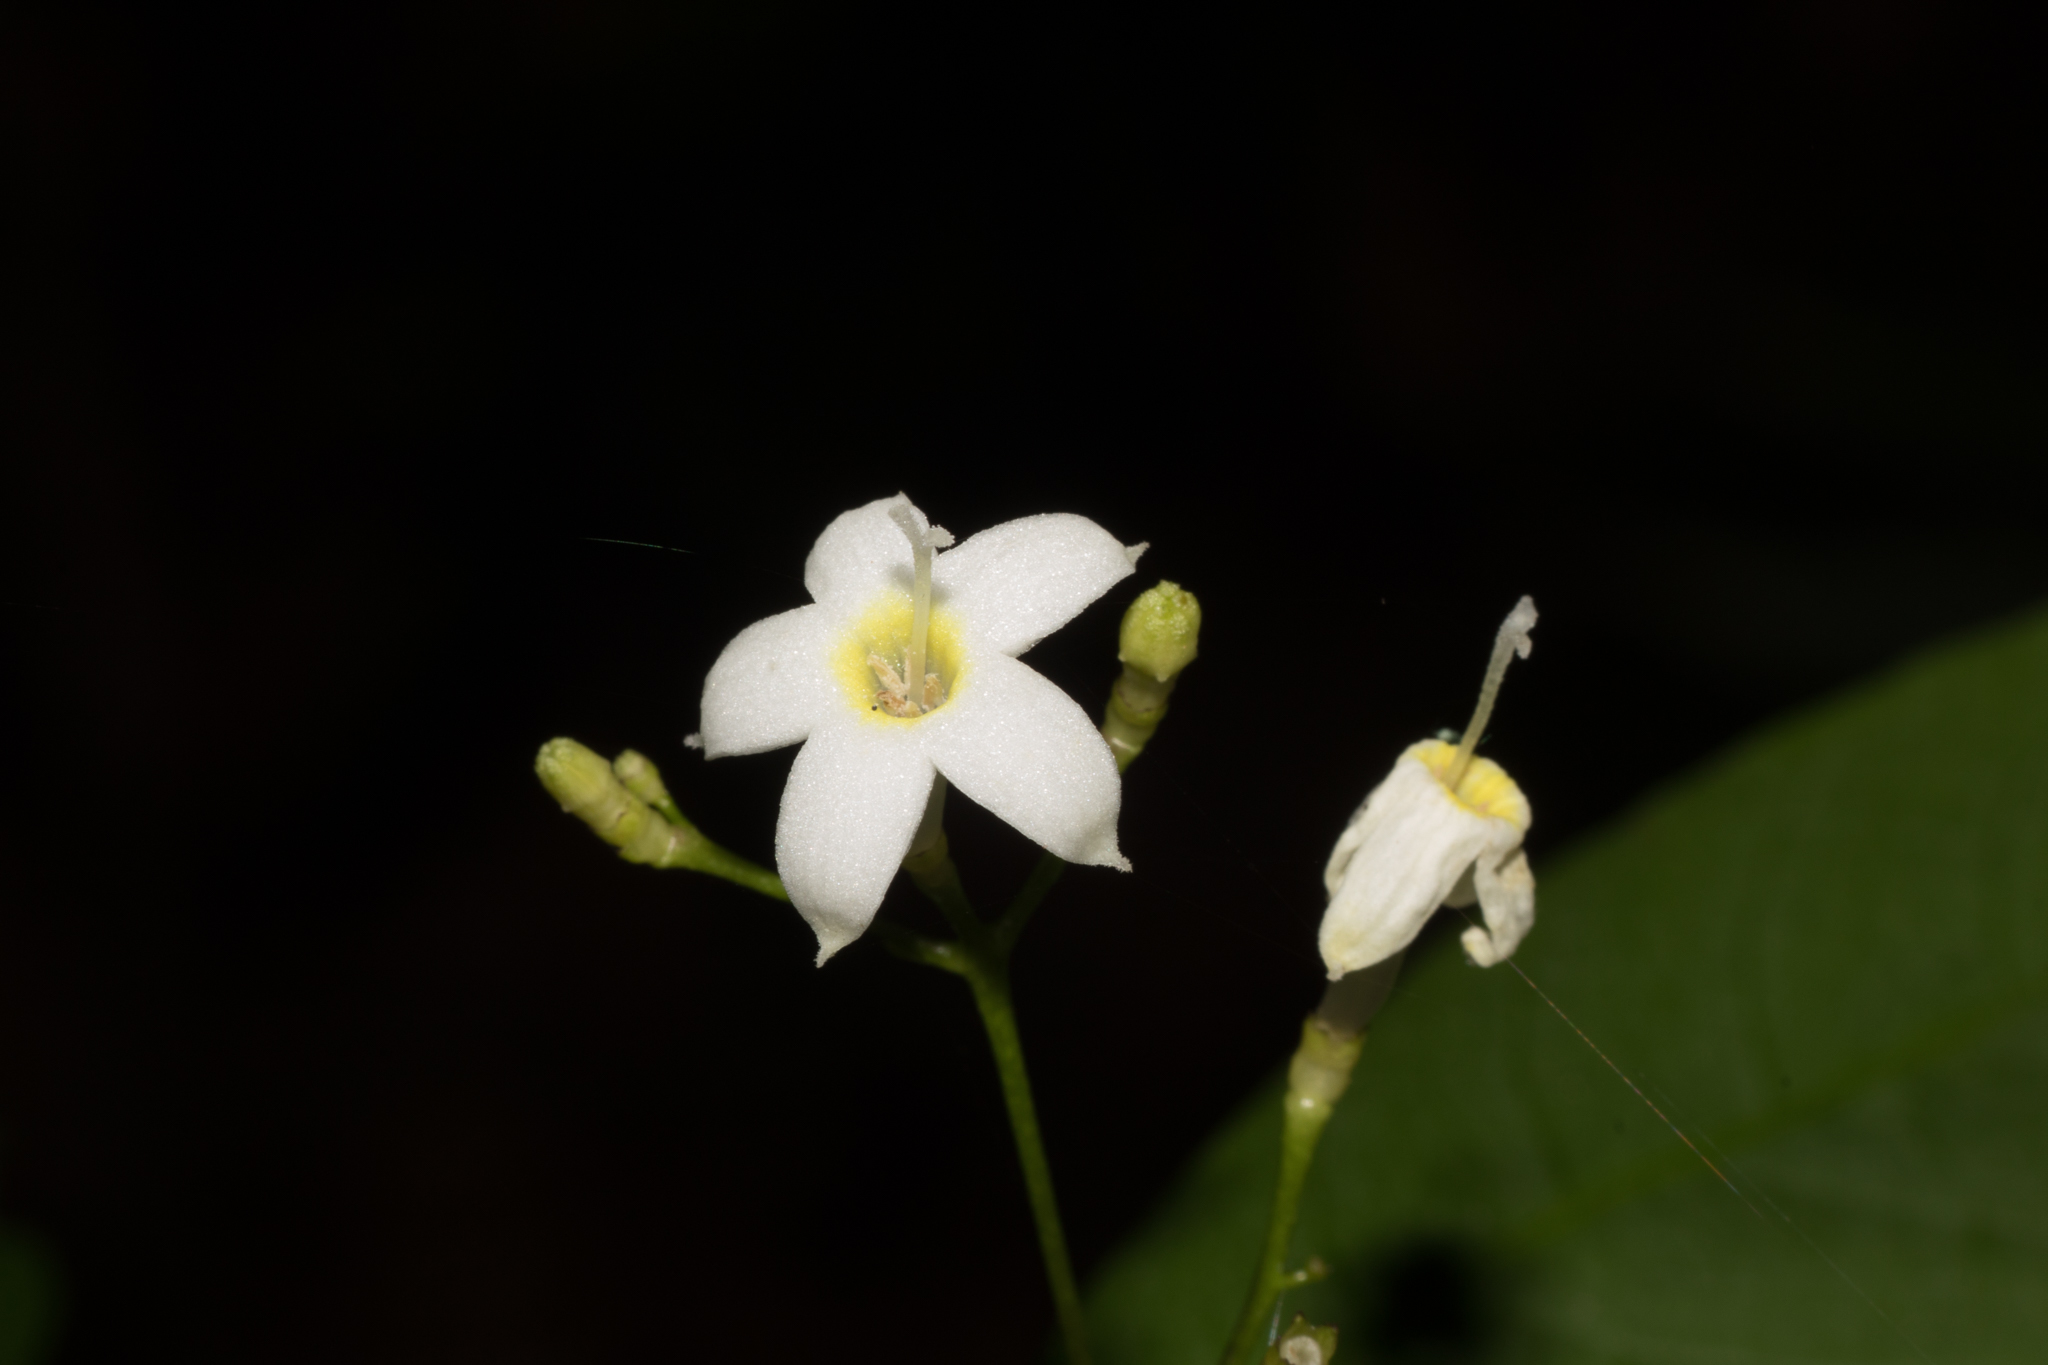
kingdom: Plantae
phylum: Tracheophyta
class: Magnoliopsida
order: Gentianales
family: Rubiaceae
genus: Psychotria
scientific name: Psychotria brachyceras
